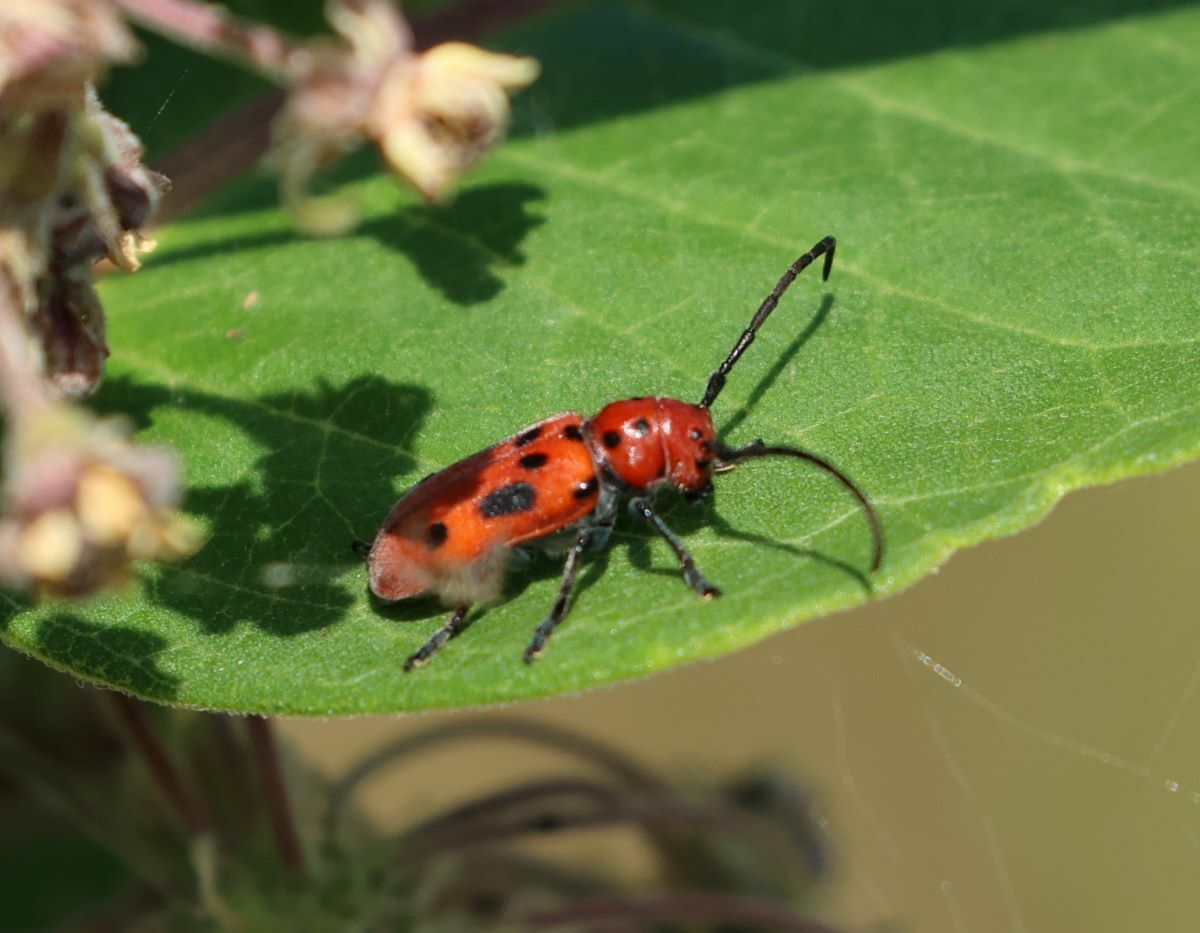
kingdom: Animalia
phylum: Arthropoda
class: Insecta
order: Coleoptera
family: Cerambycidae
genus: Tetraopes
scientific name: Tetraopes tetrophthalmus
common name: Red milkweed beetle
